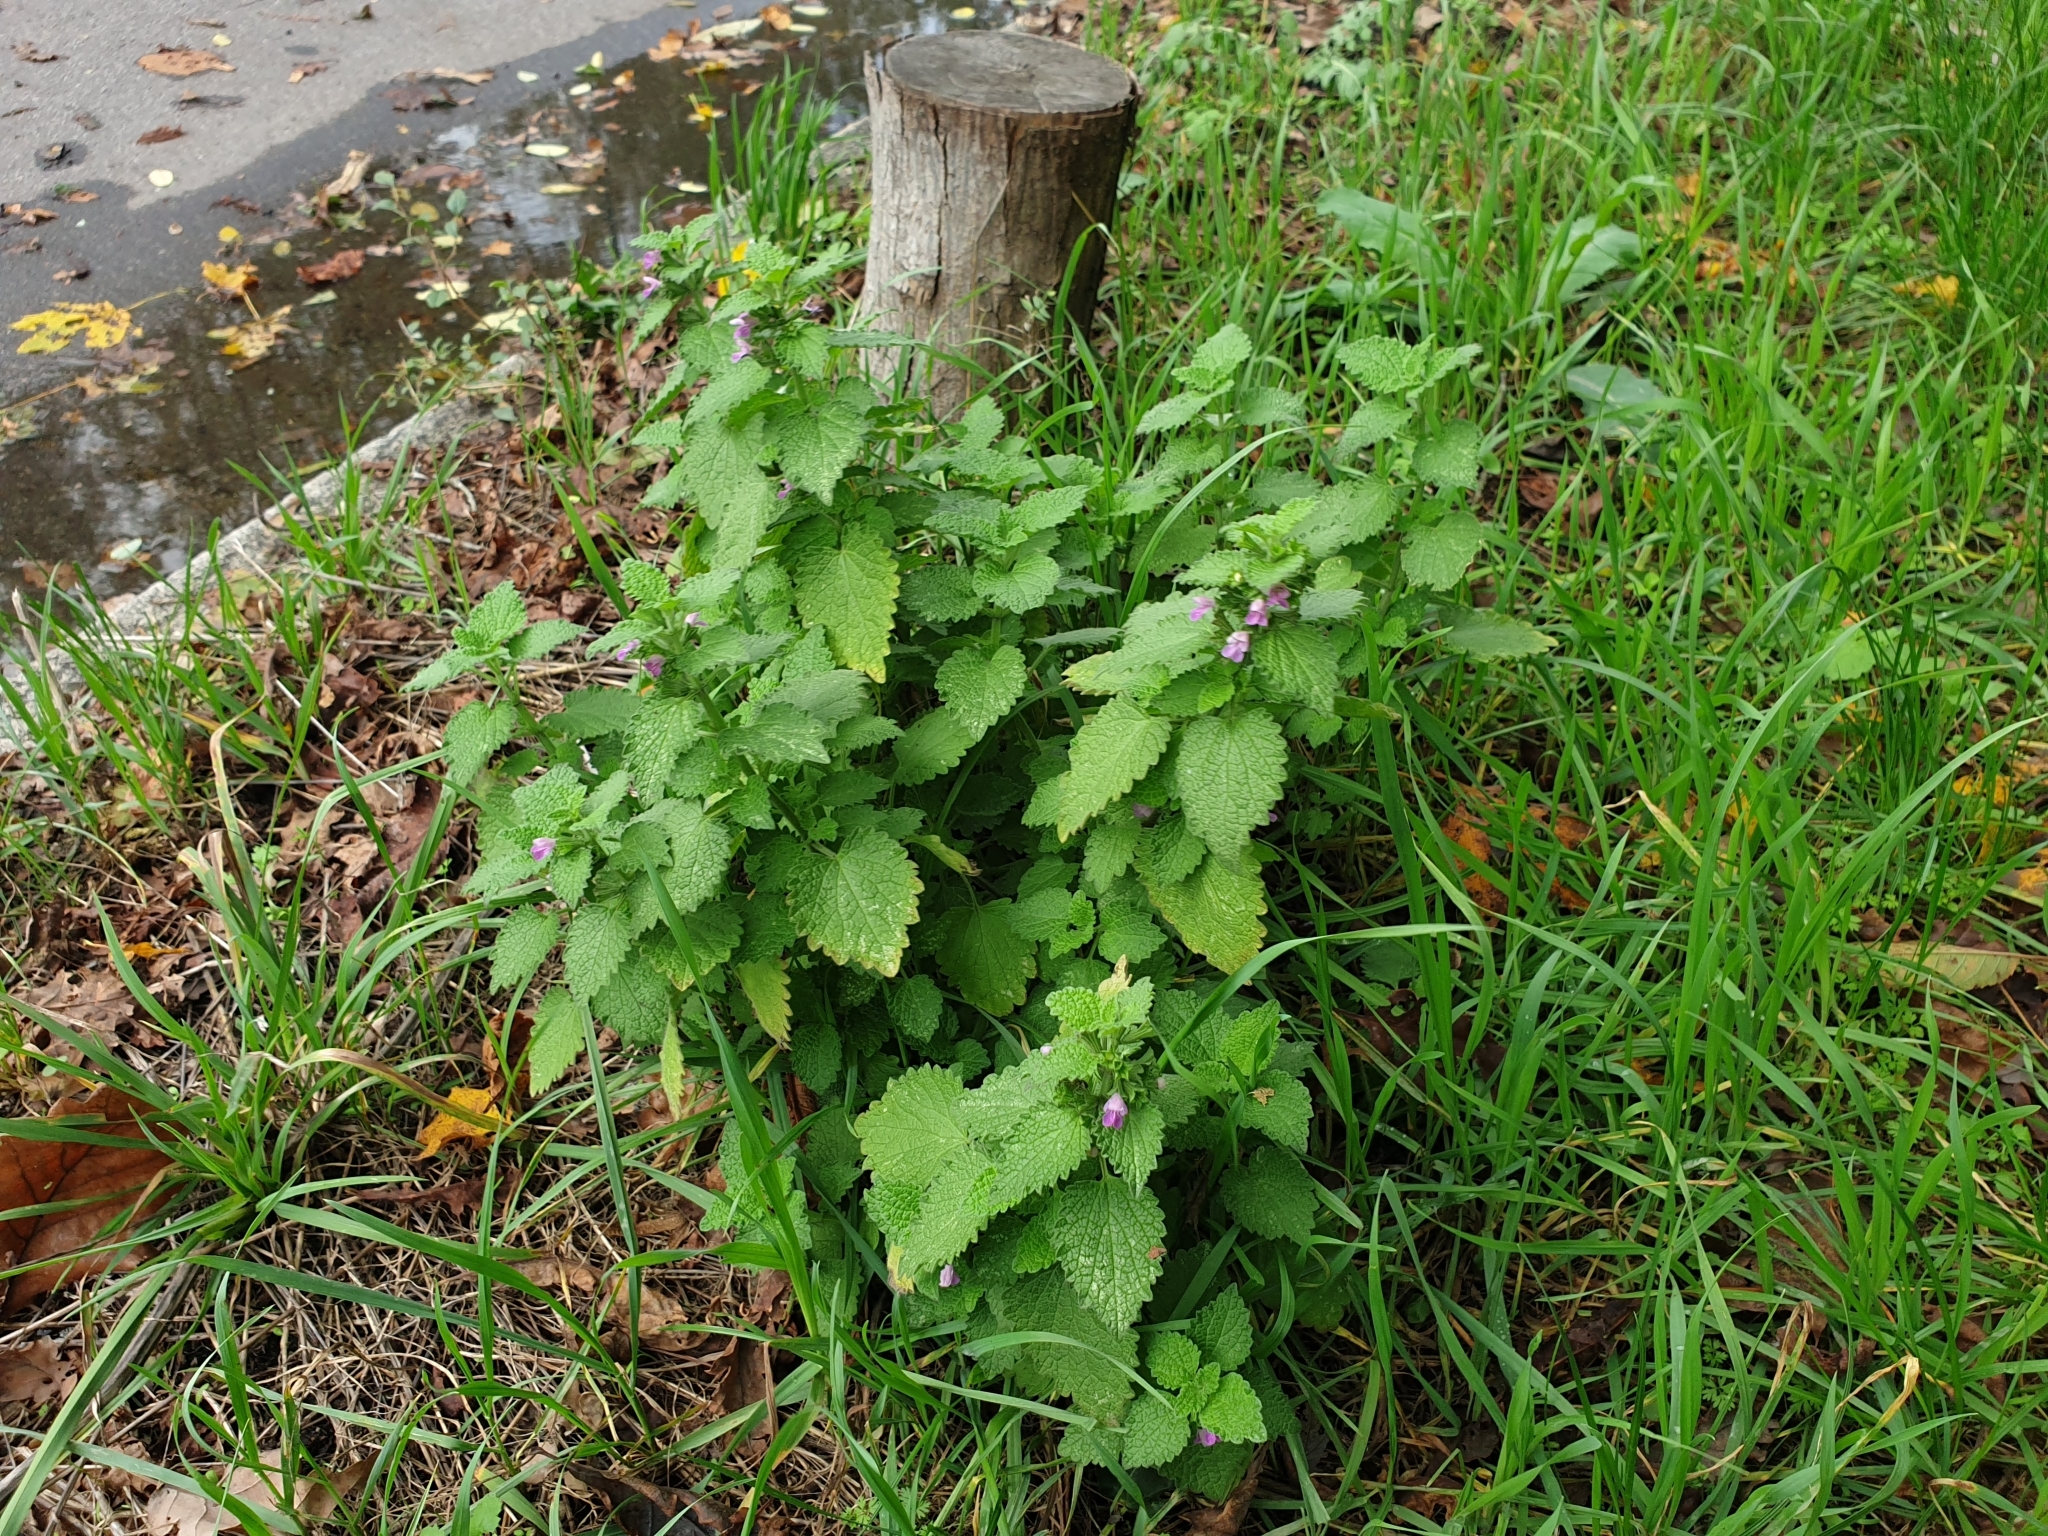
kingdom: Plantae
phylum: Tracheophyta
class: Magnoliopsida
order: Lamiales
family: Lamiaceae
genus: Ballota
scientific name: Ballota nigra
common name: Black horehound
